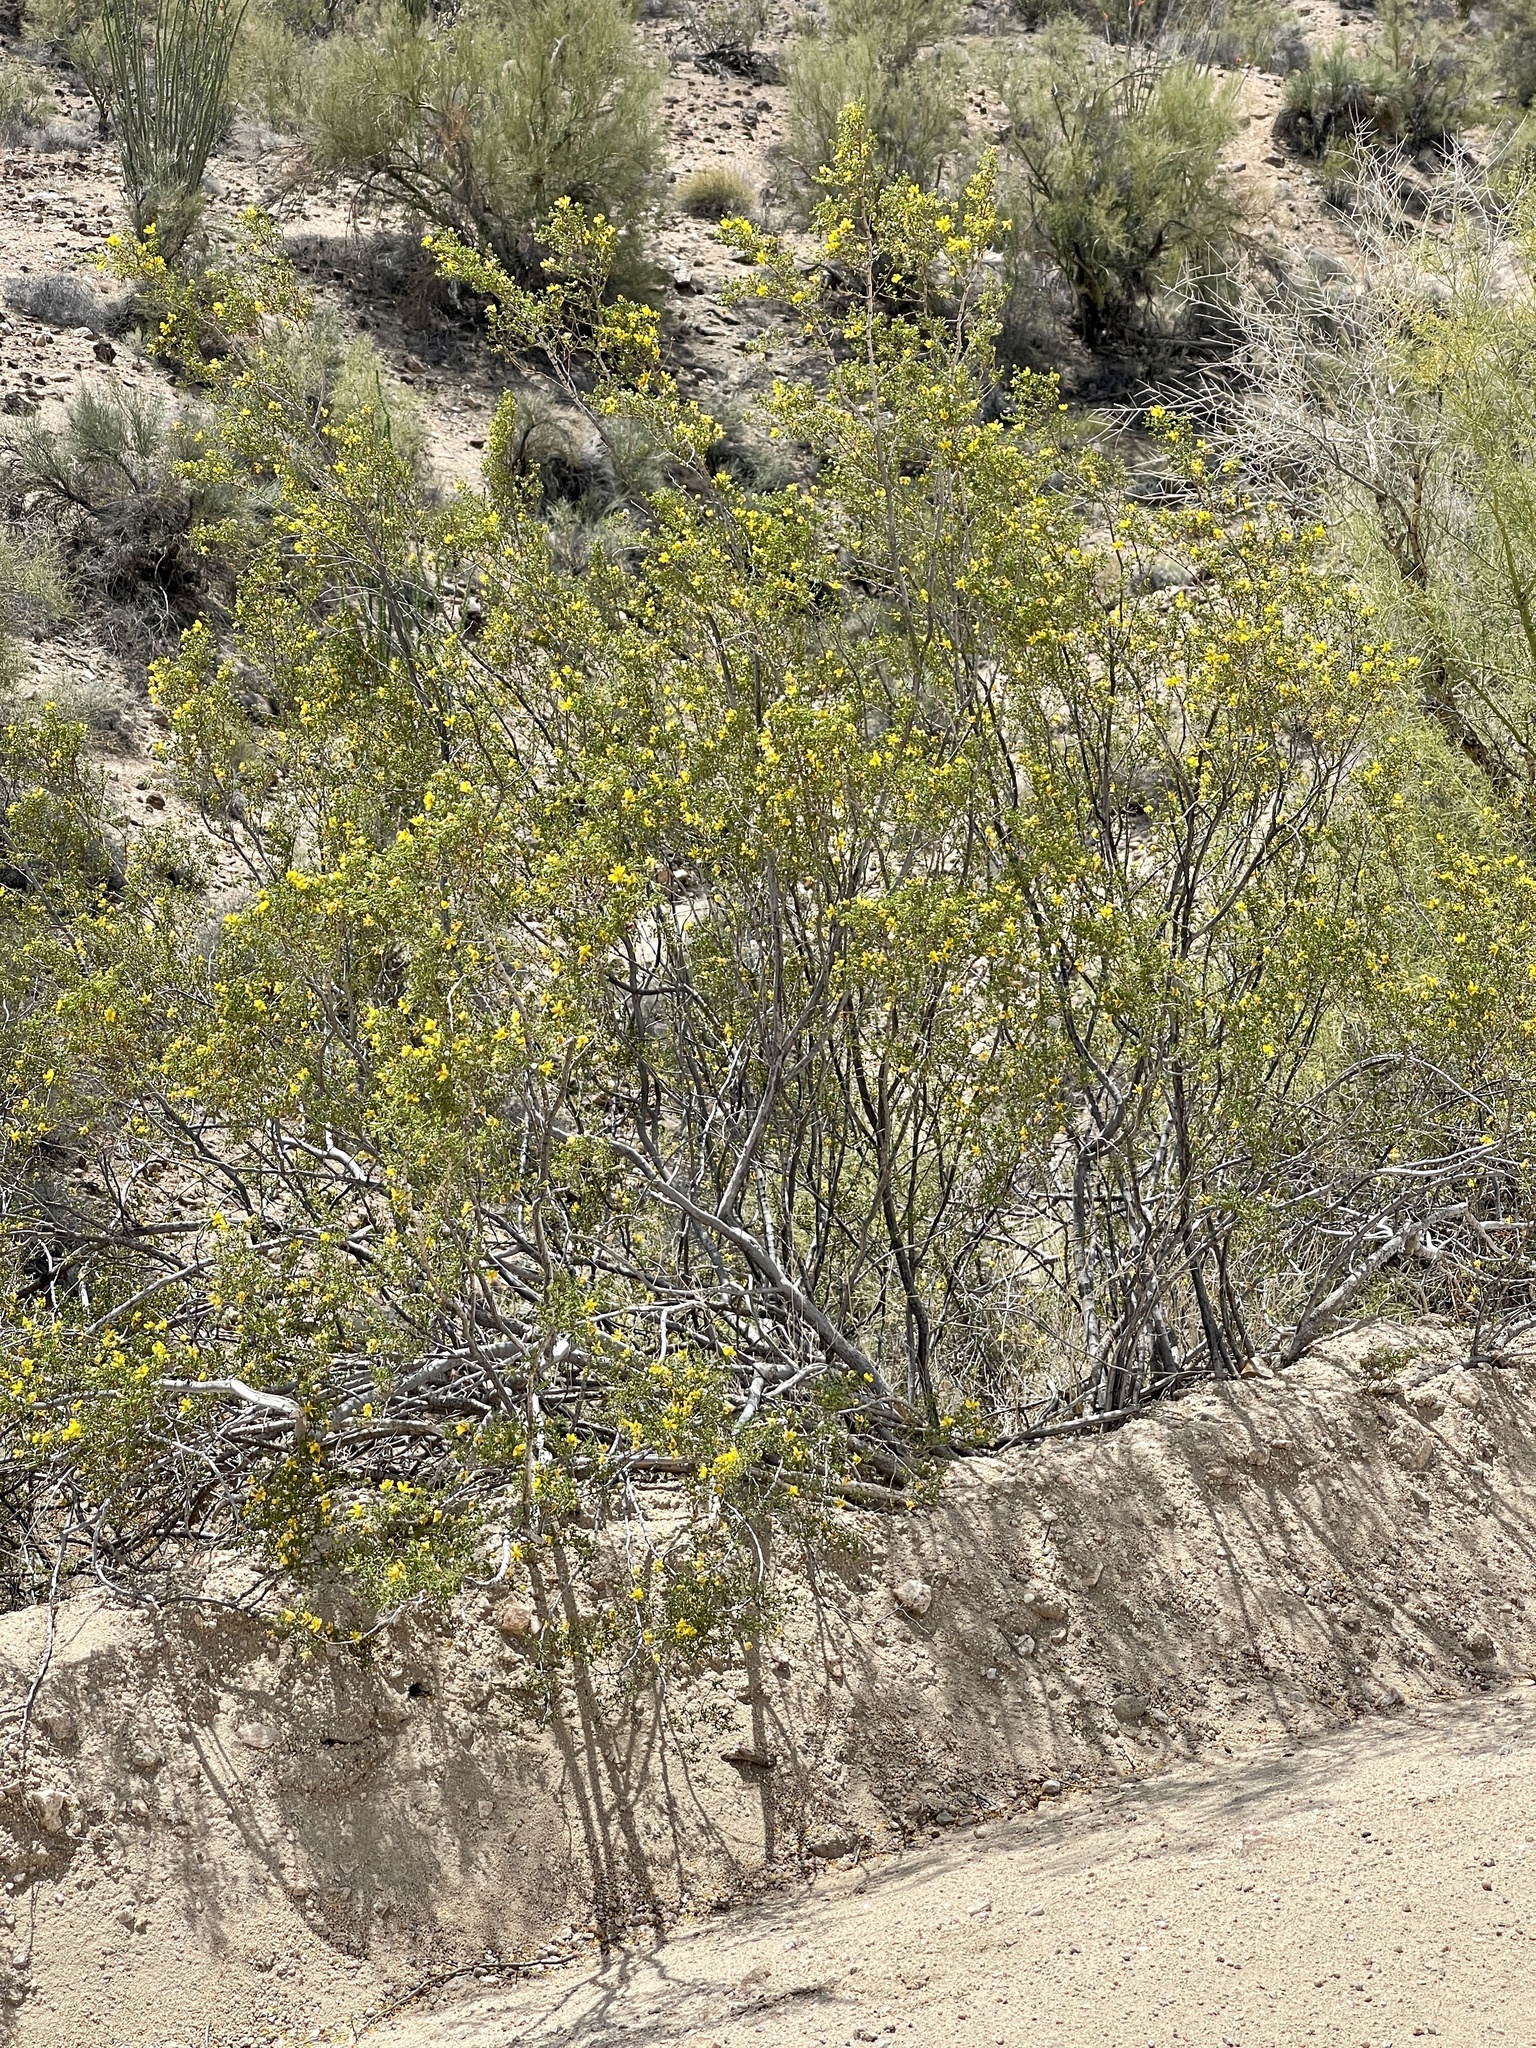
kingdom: Plantae
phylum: Tracheophyta
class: Magnoliopsida
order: Zygophyllales
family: Zygophyllaceae
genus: Larrea
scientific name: Larrea tridentata
